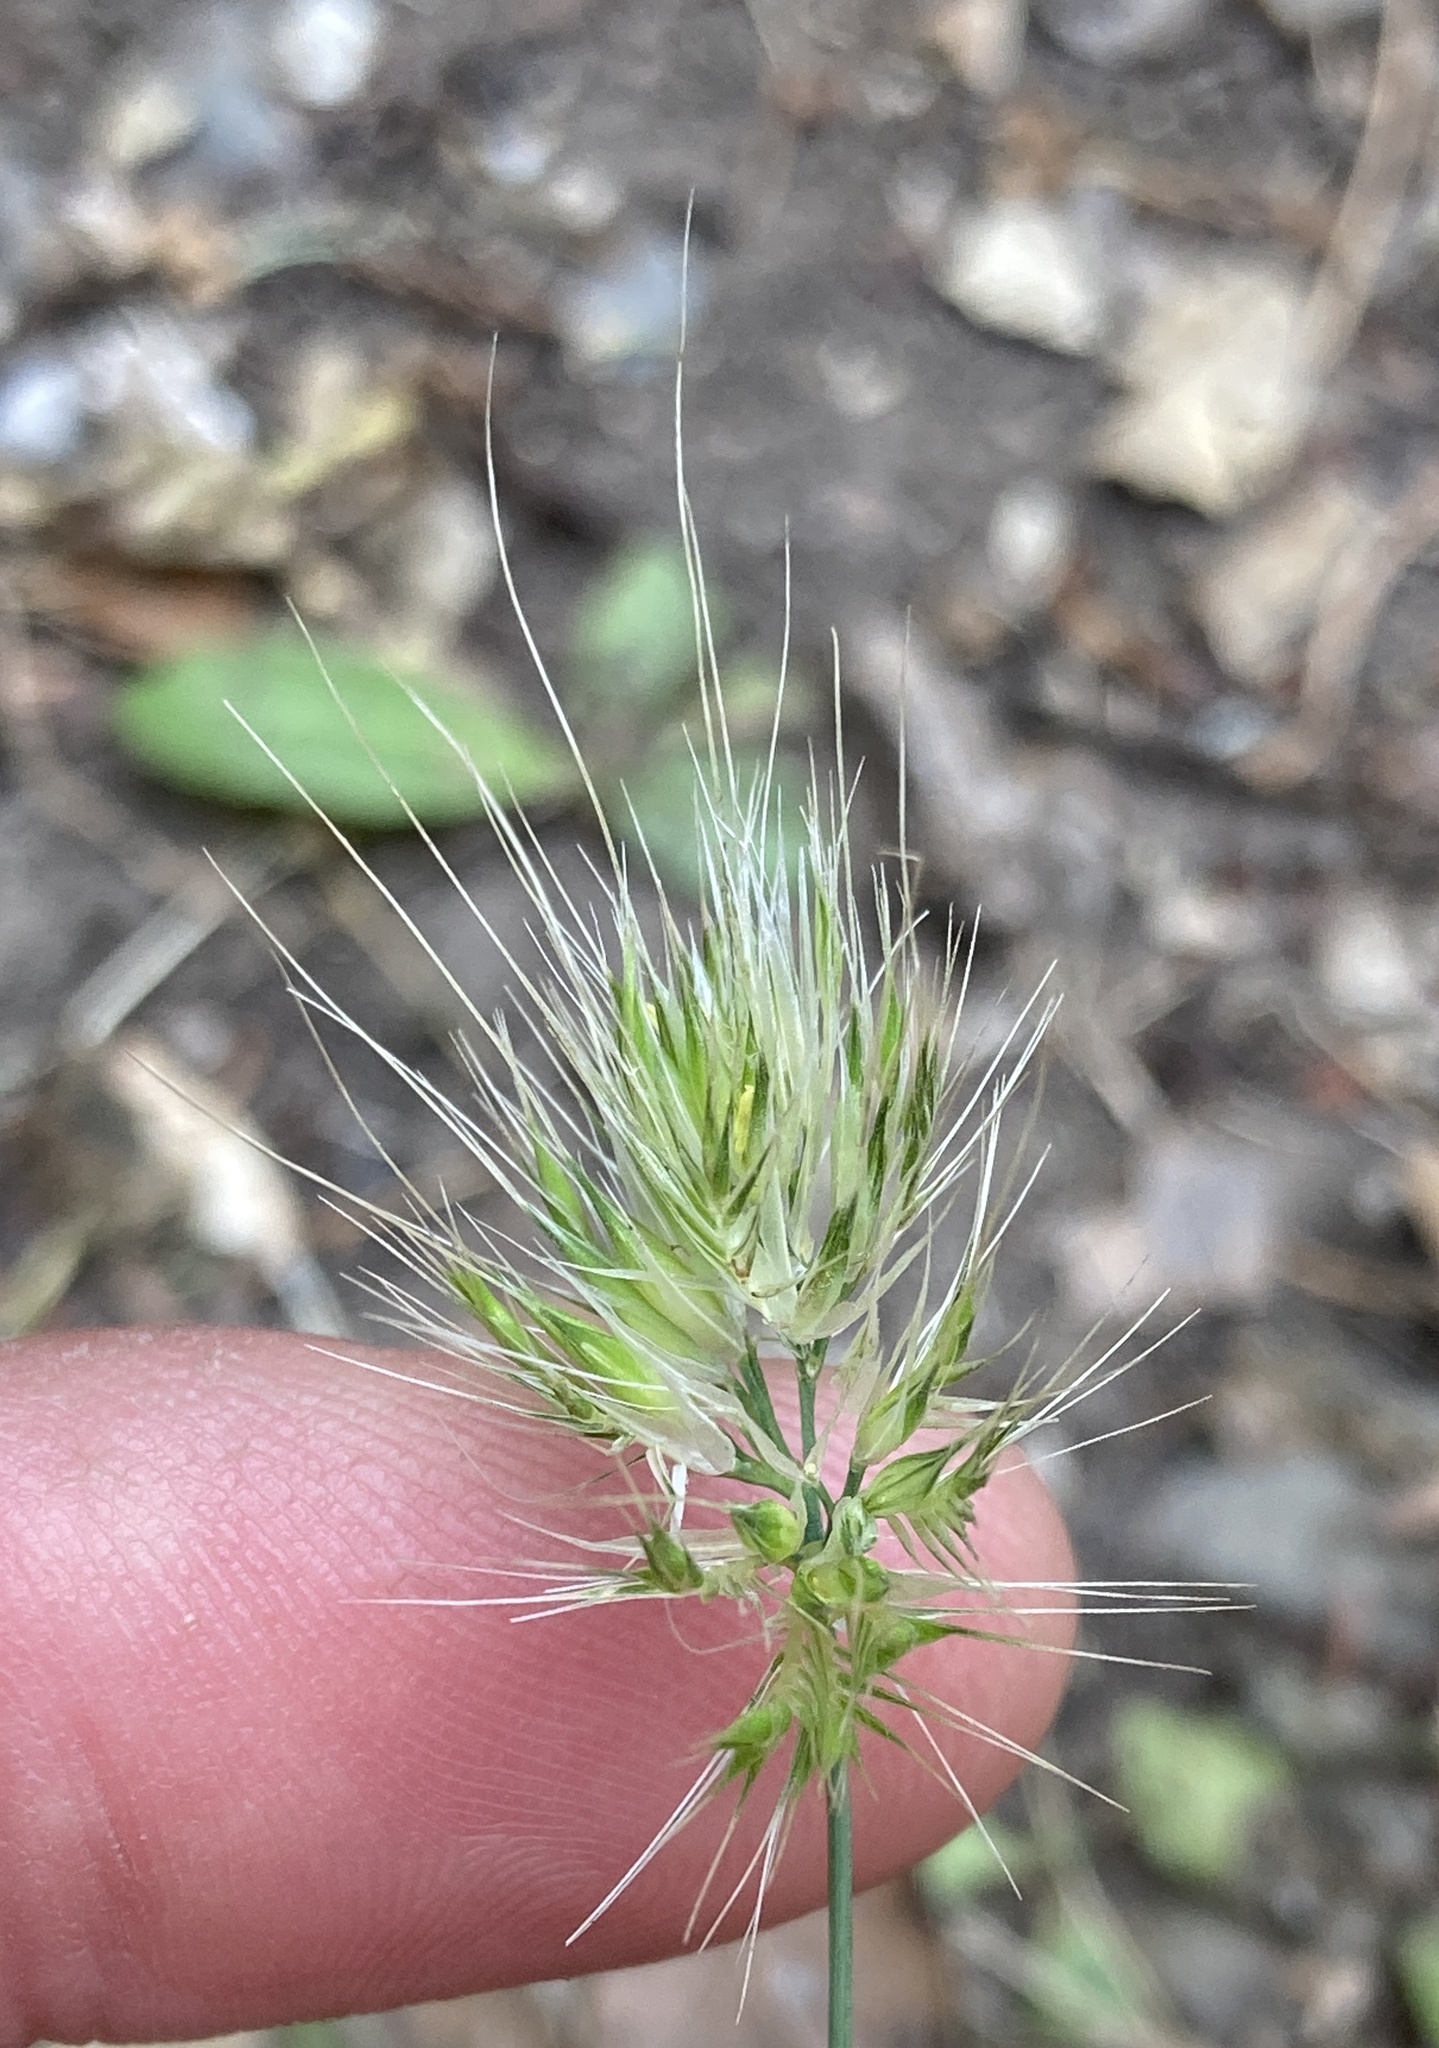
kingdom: Plantae
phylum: Tracheophyta
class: Liliopsida
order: Poales
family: Poaceae
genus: Cynosurus
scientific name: Cynosurus echinatus
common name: Rough dog's-tail
